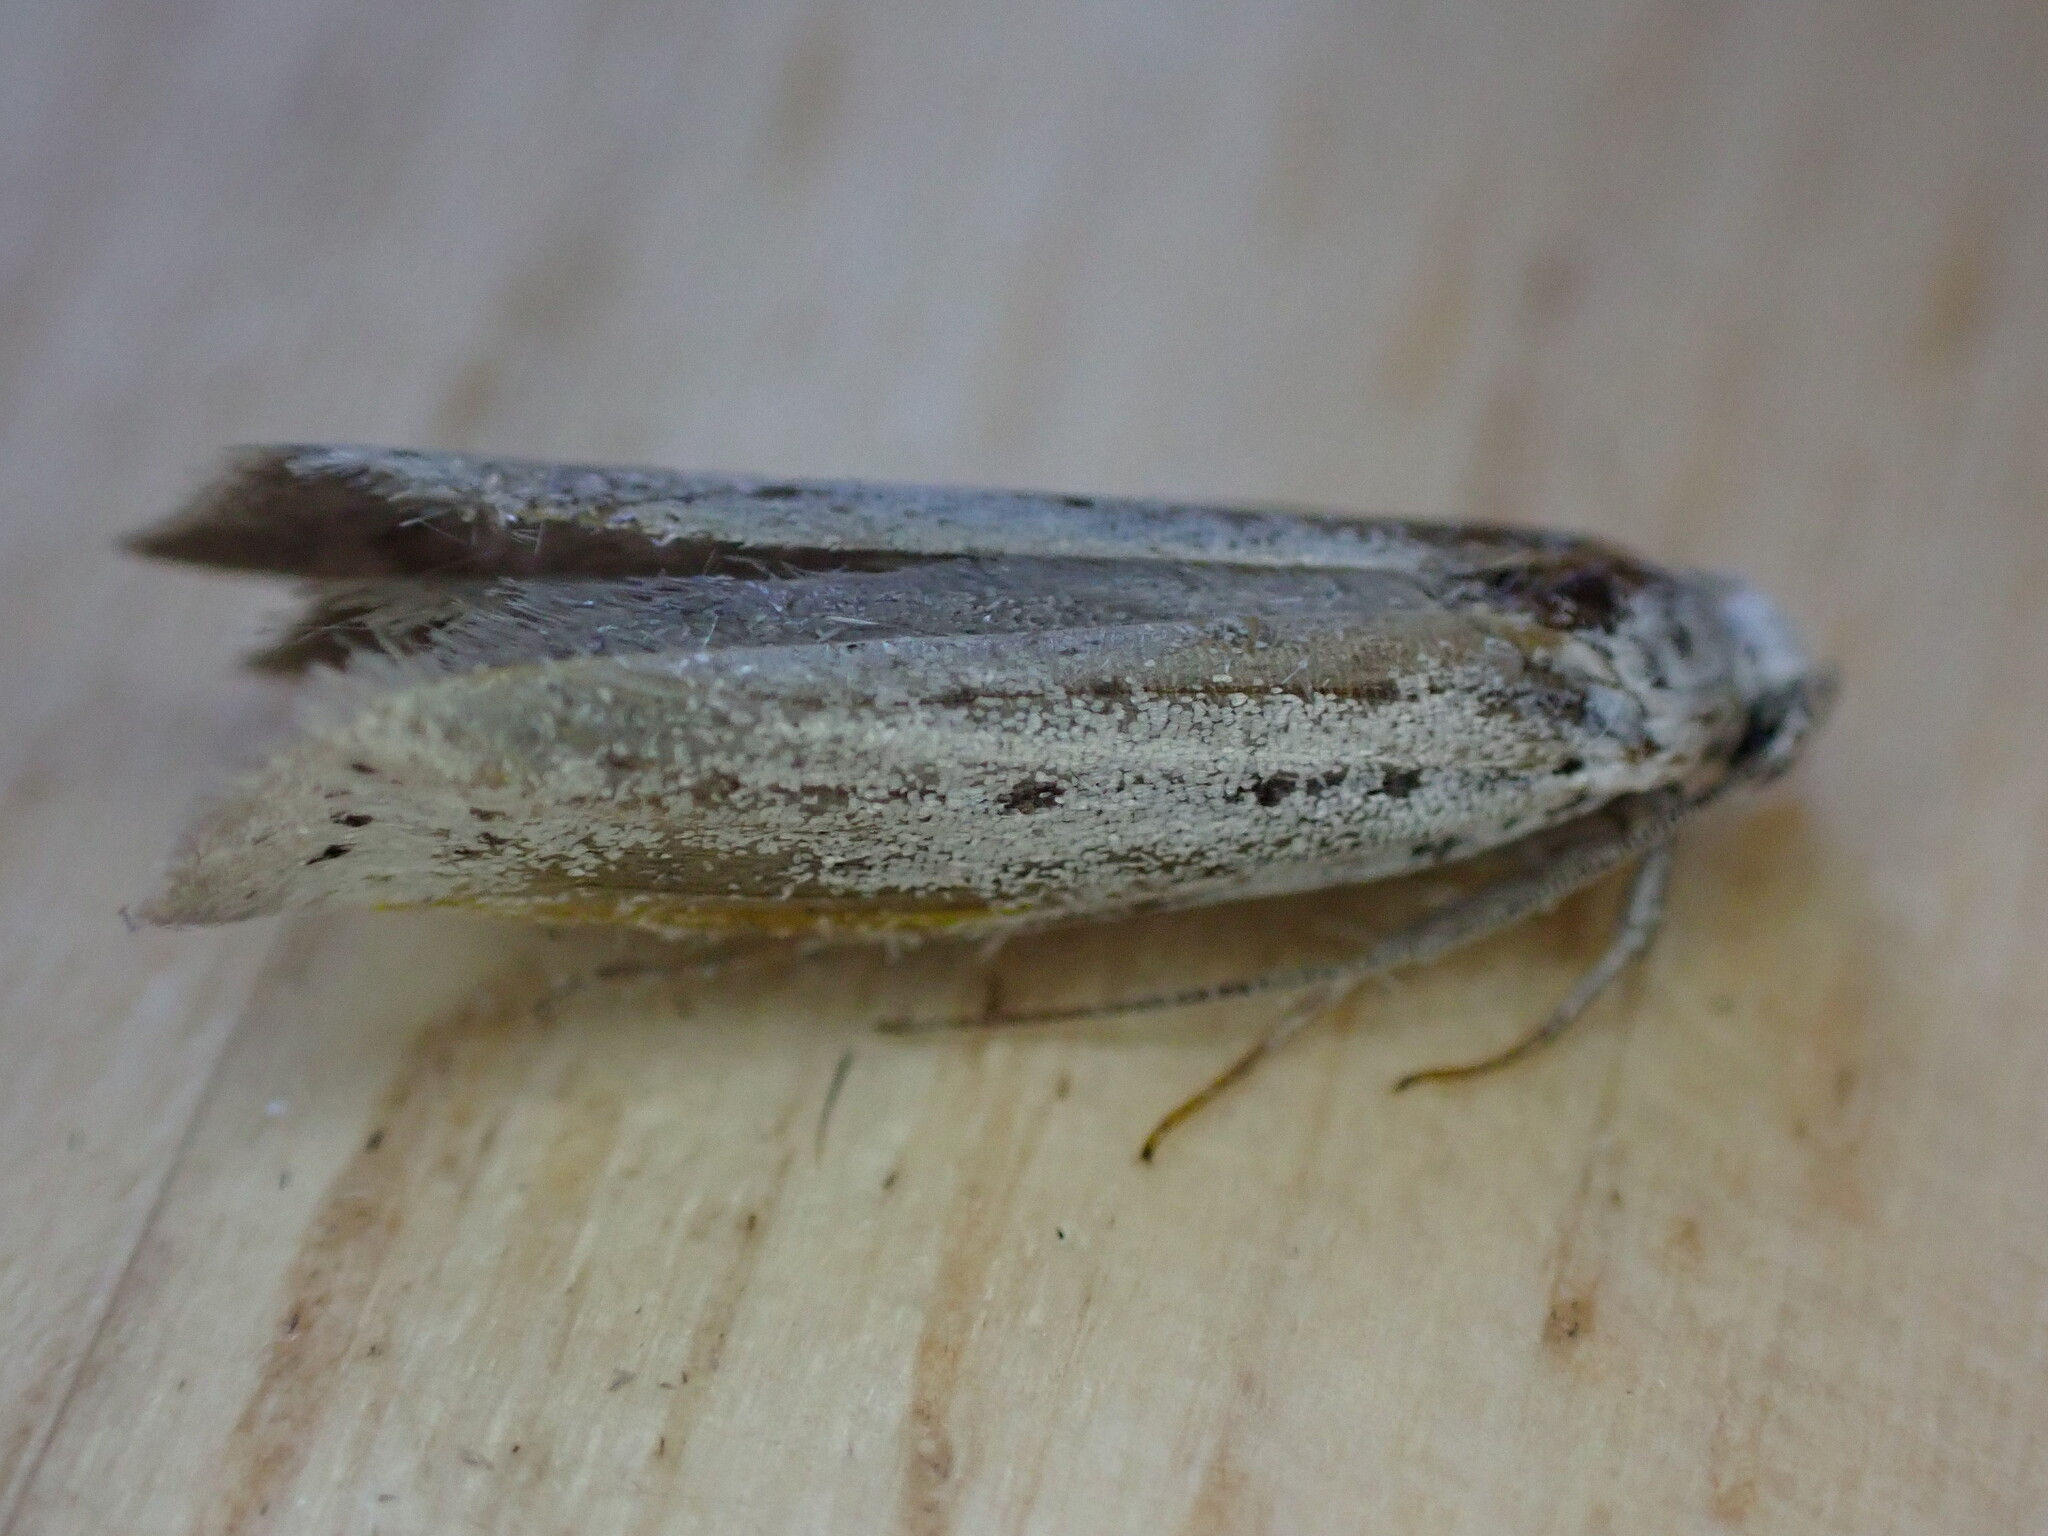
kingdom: Animalia
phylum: Arthropoda
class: Insecta
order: Lepidoptera
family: Yponomeutidae
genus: Yponomeuta
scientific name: Yponomeuta
